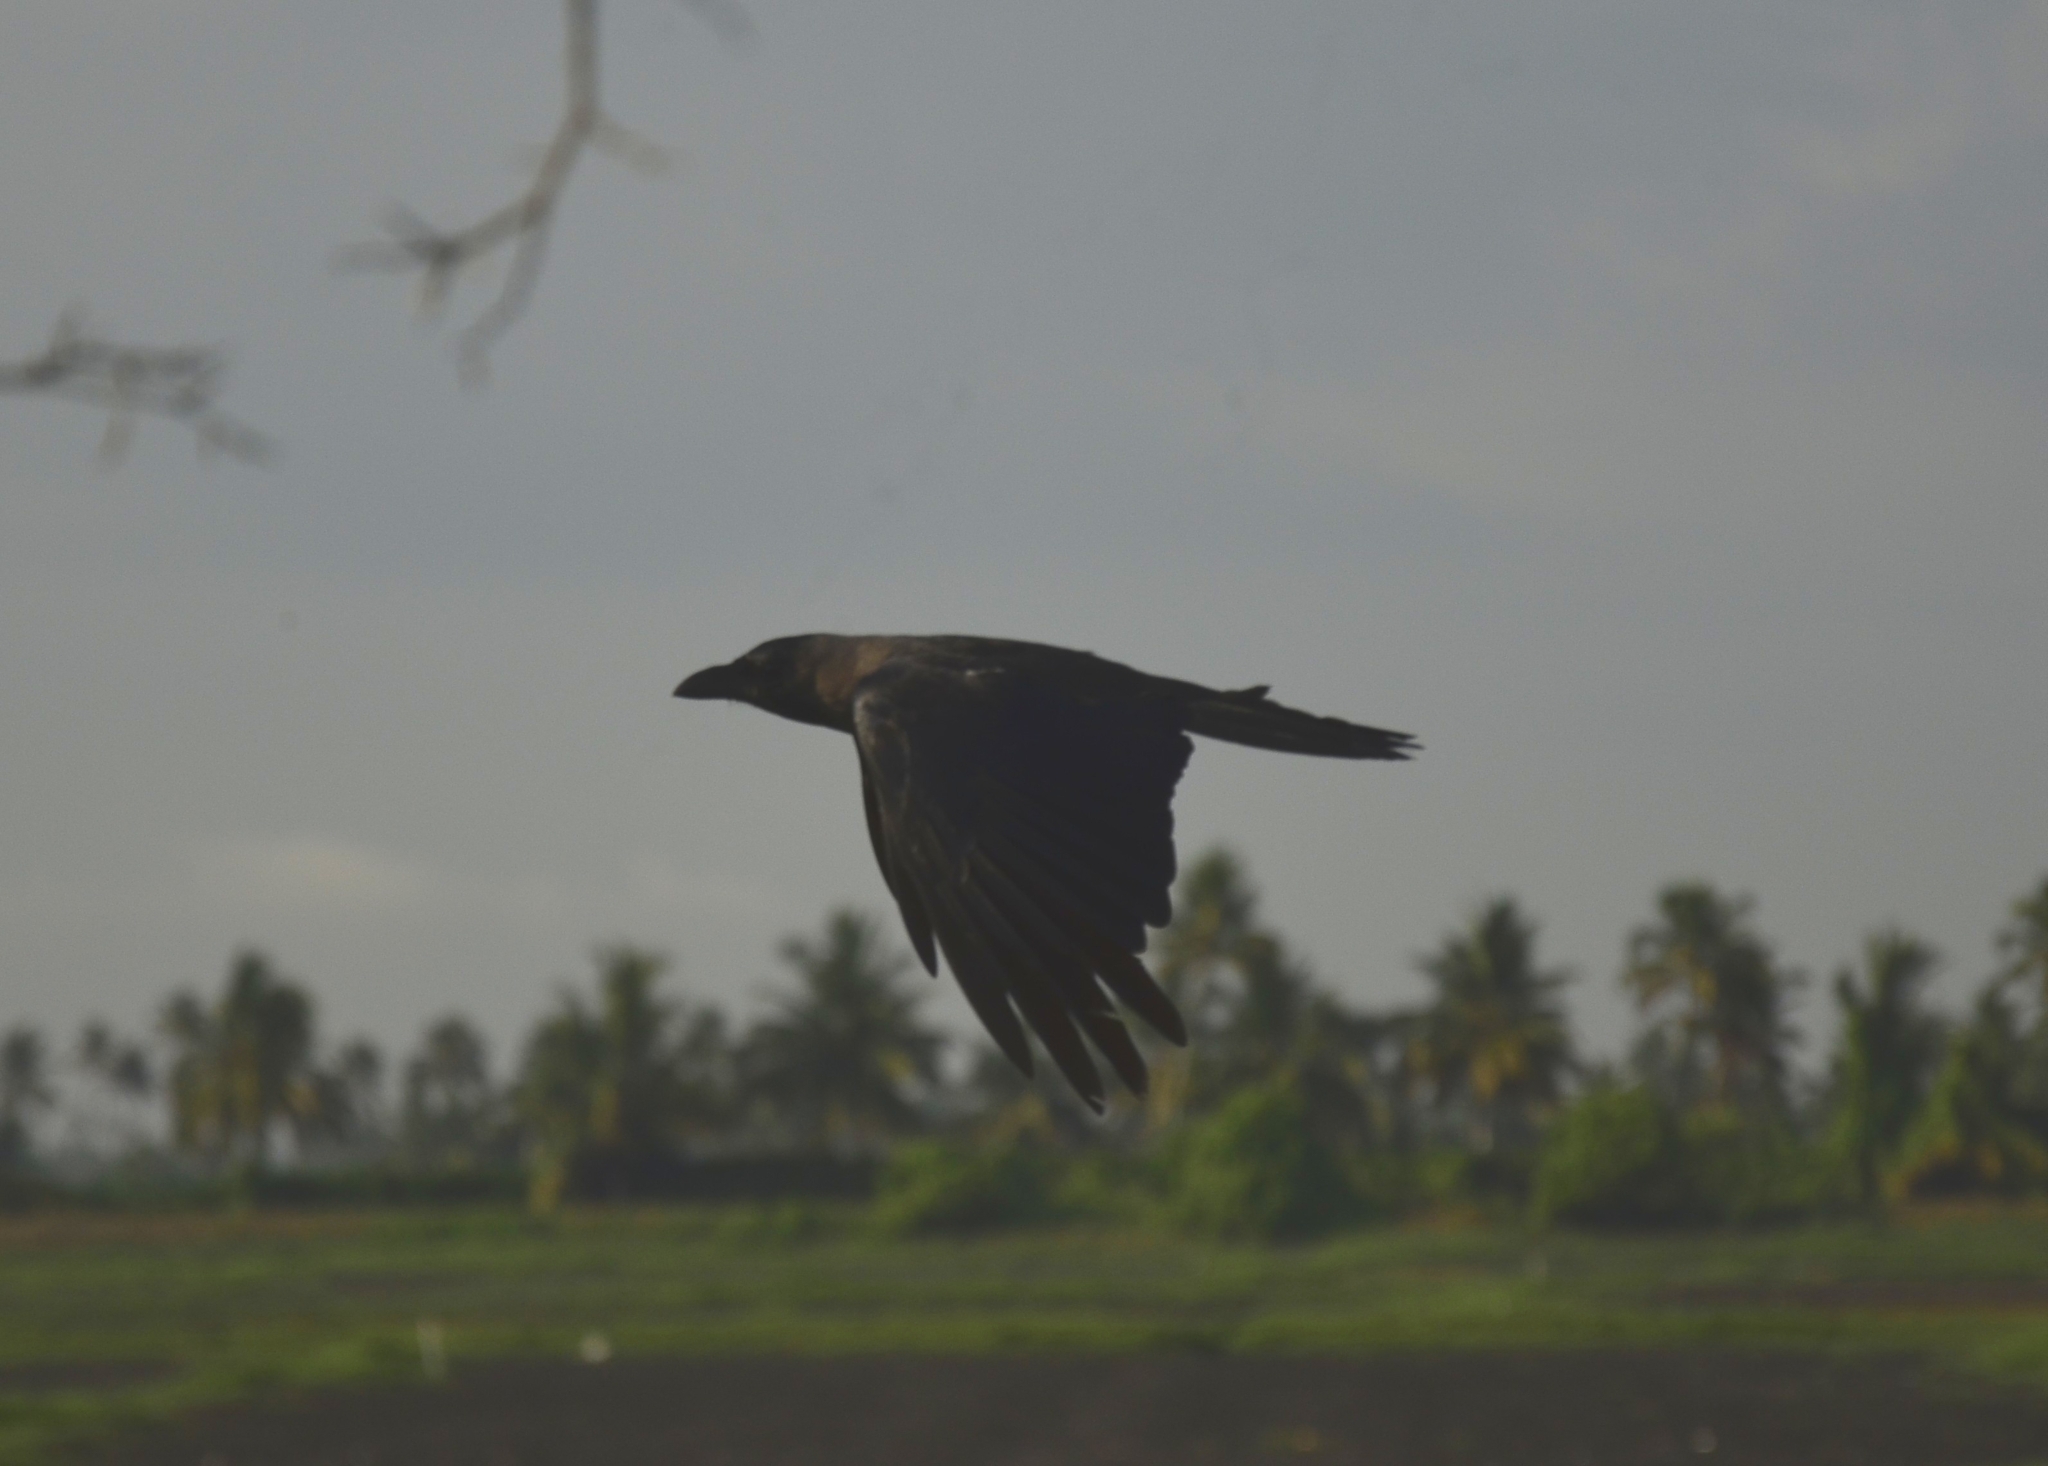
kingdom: Animalia
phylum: Chordata
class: Aves
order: Passeriformes
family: Corvidae
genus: Corvus
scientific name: Corvus splendens
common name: House crow
